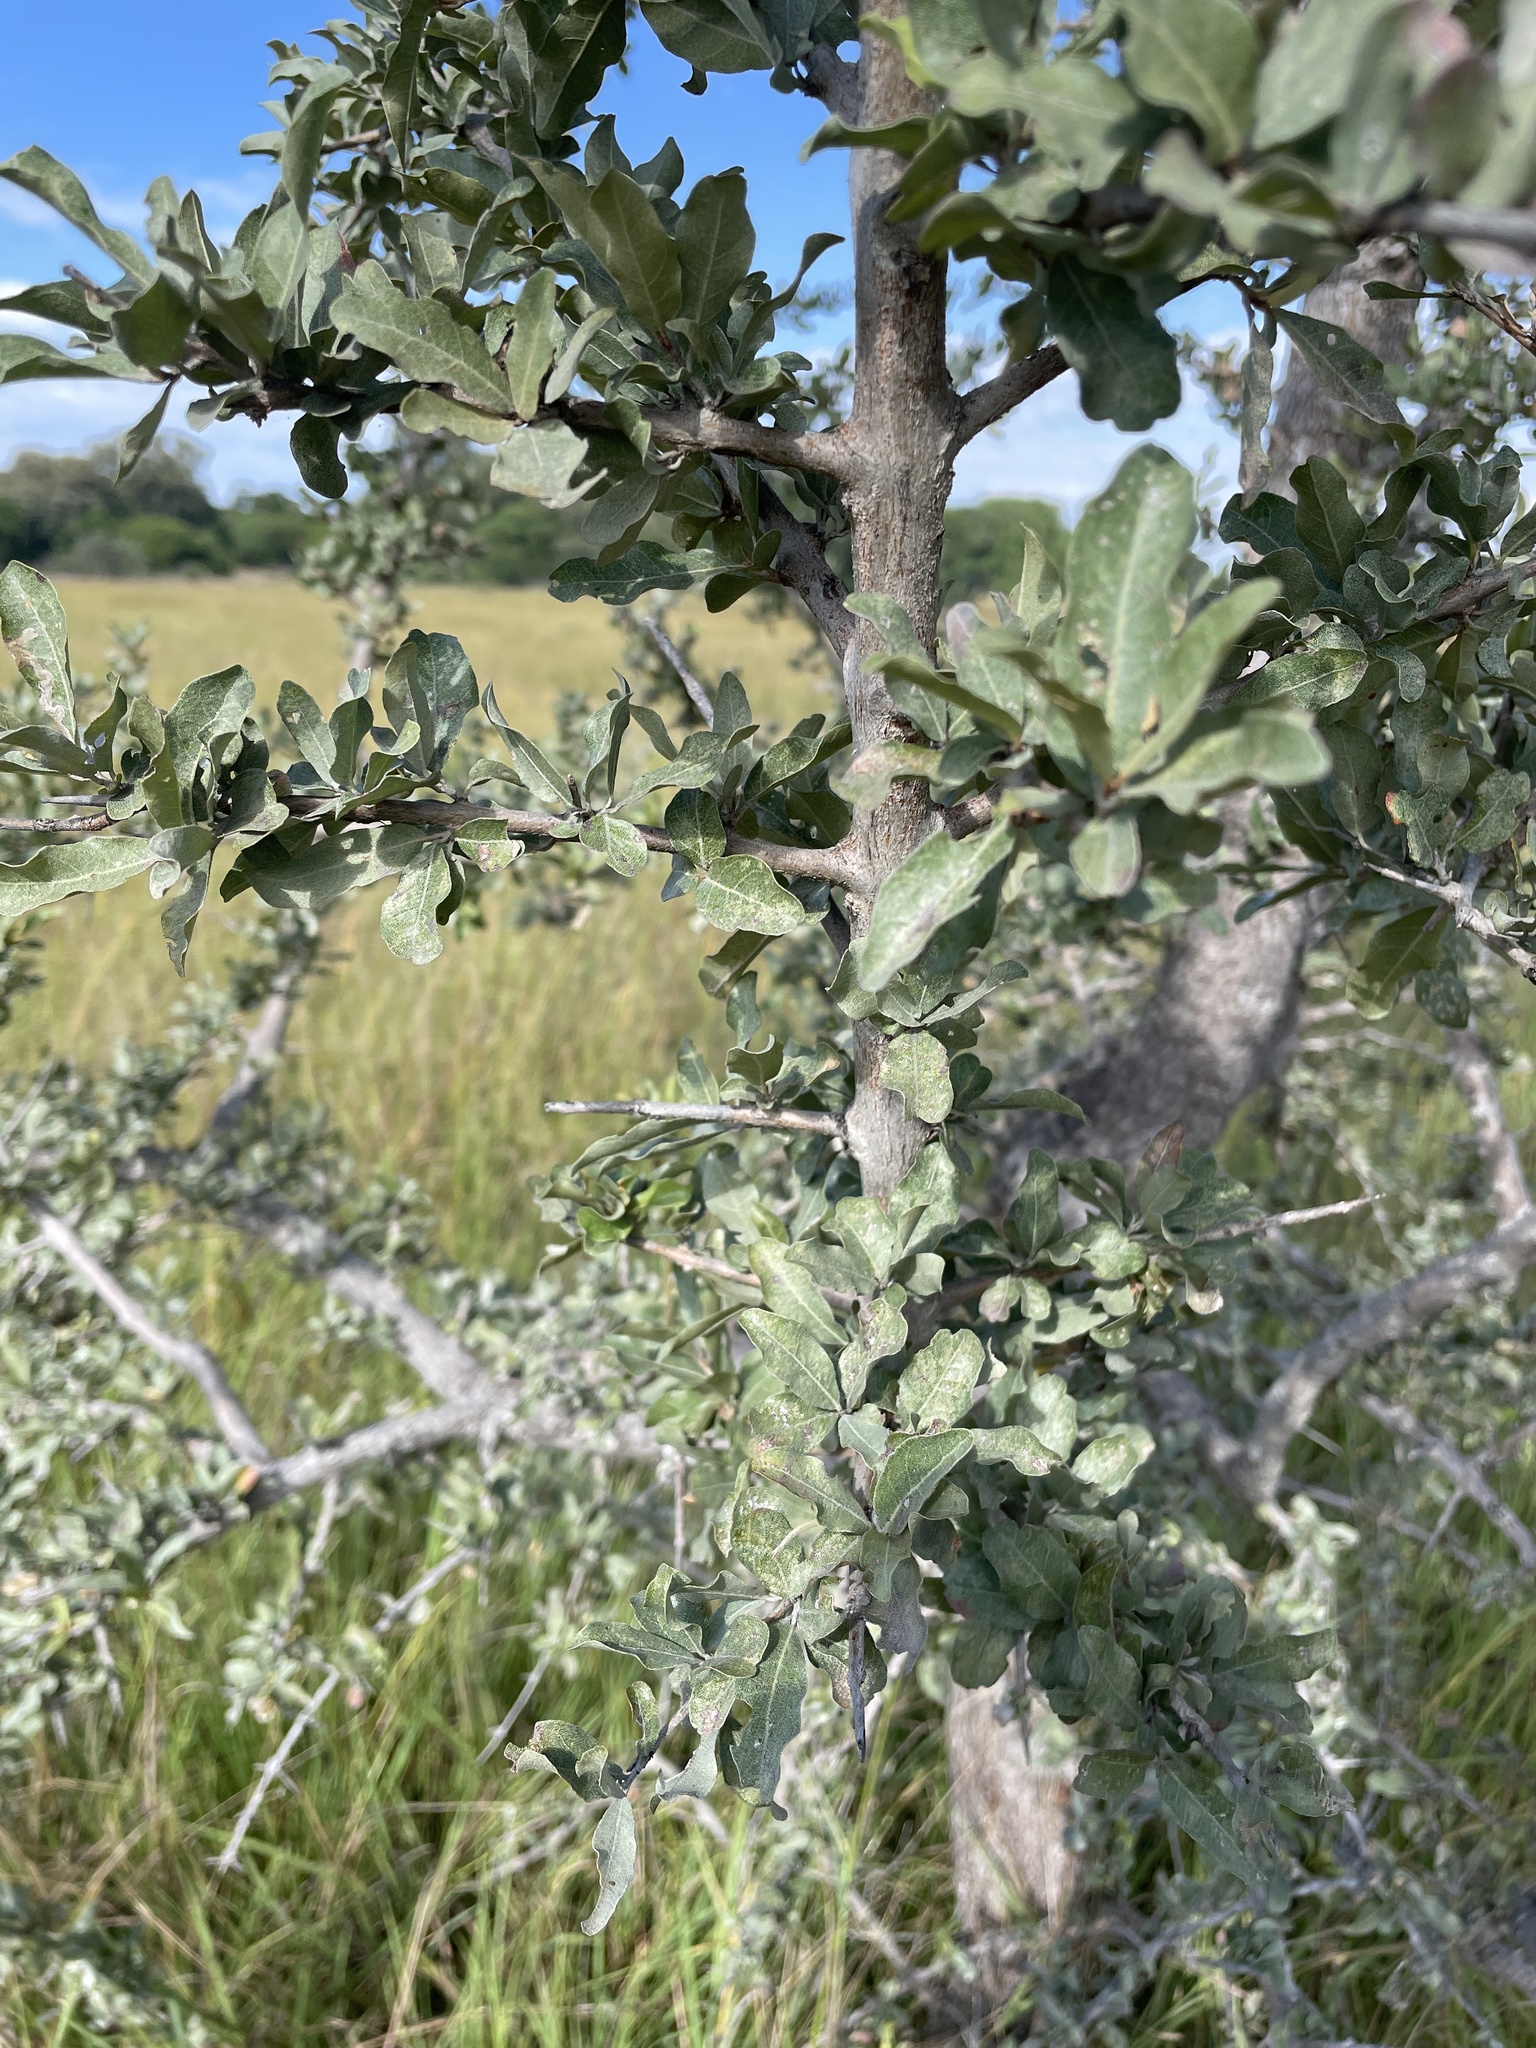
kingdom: Plantae
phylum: Tracheophyta
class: Magnoliopsida
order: Myrtales
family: Combretaceae
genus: Combretum
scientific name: Combretum imberbe
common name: Leadwood
